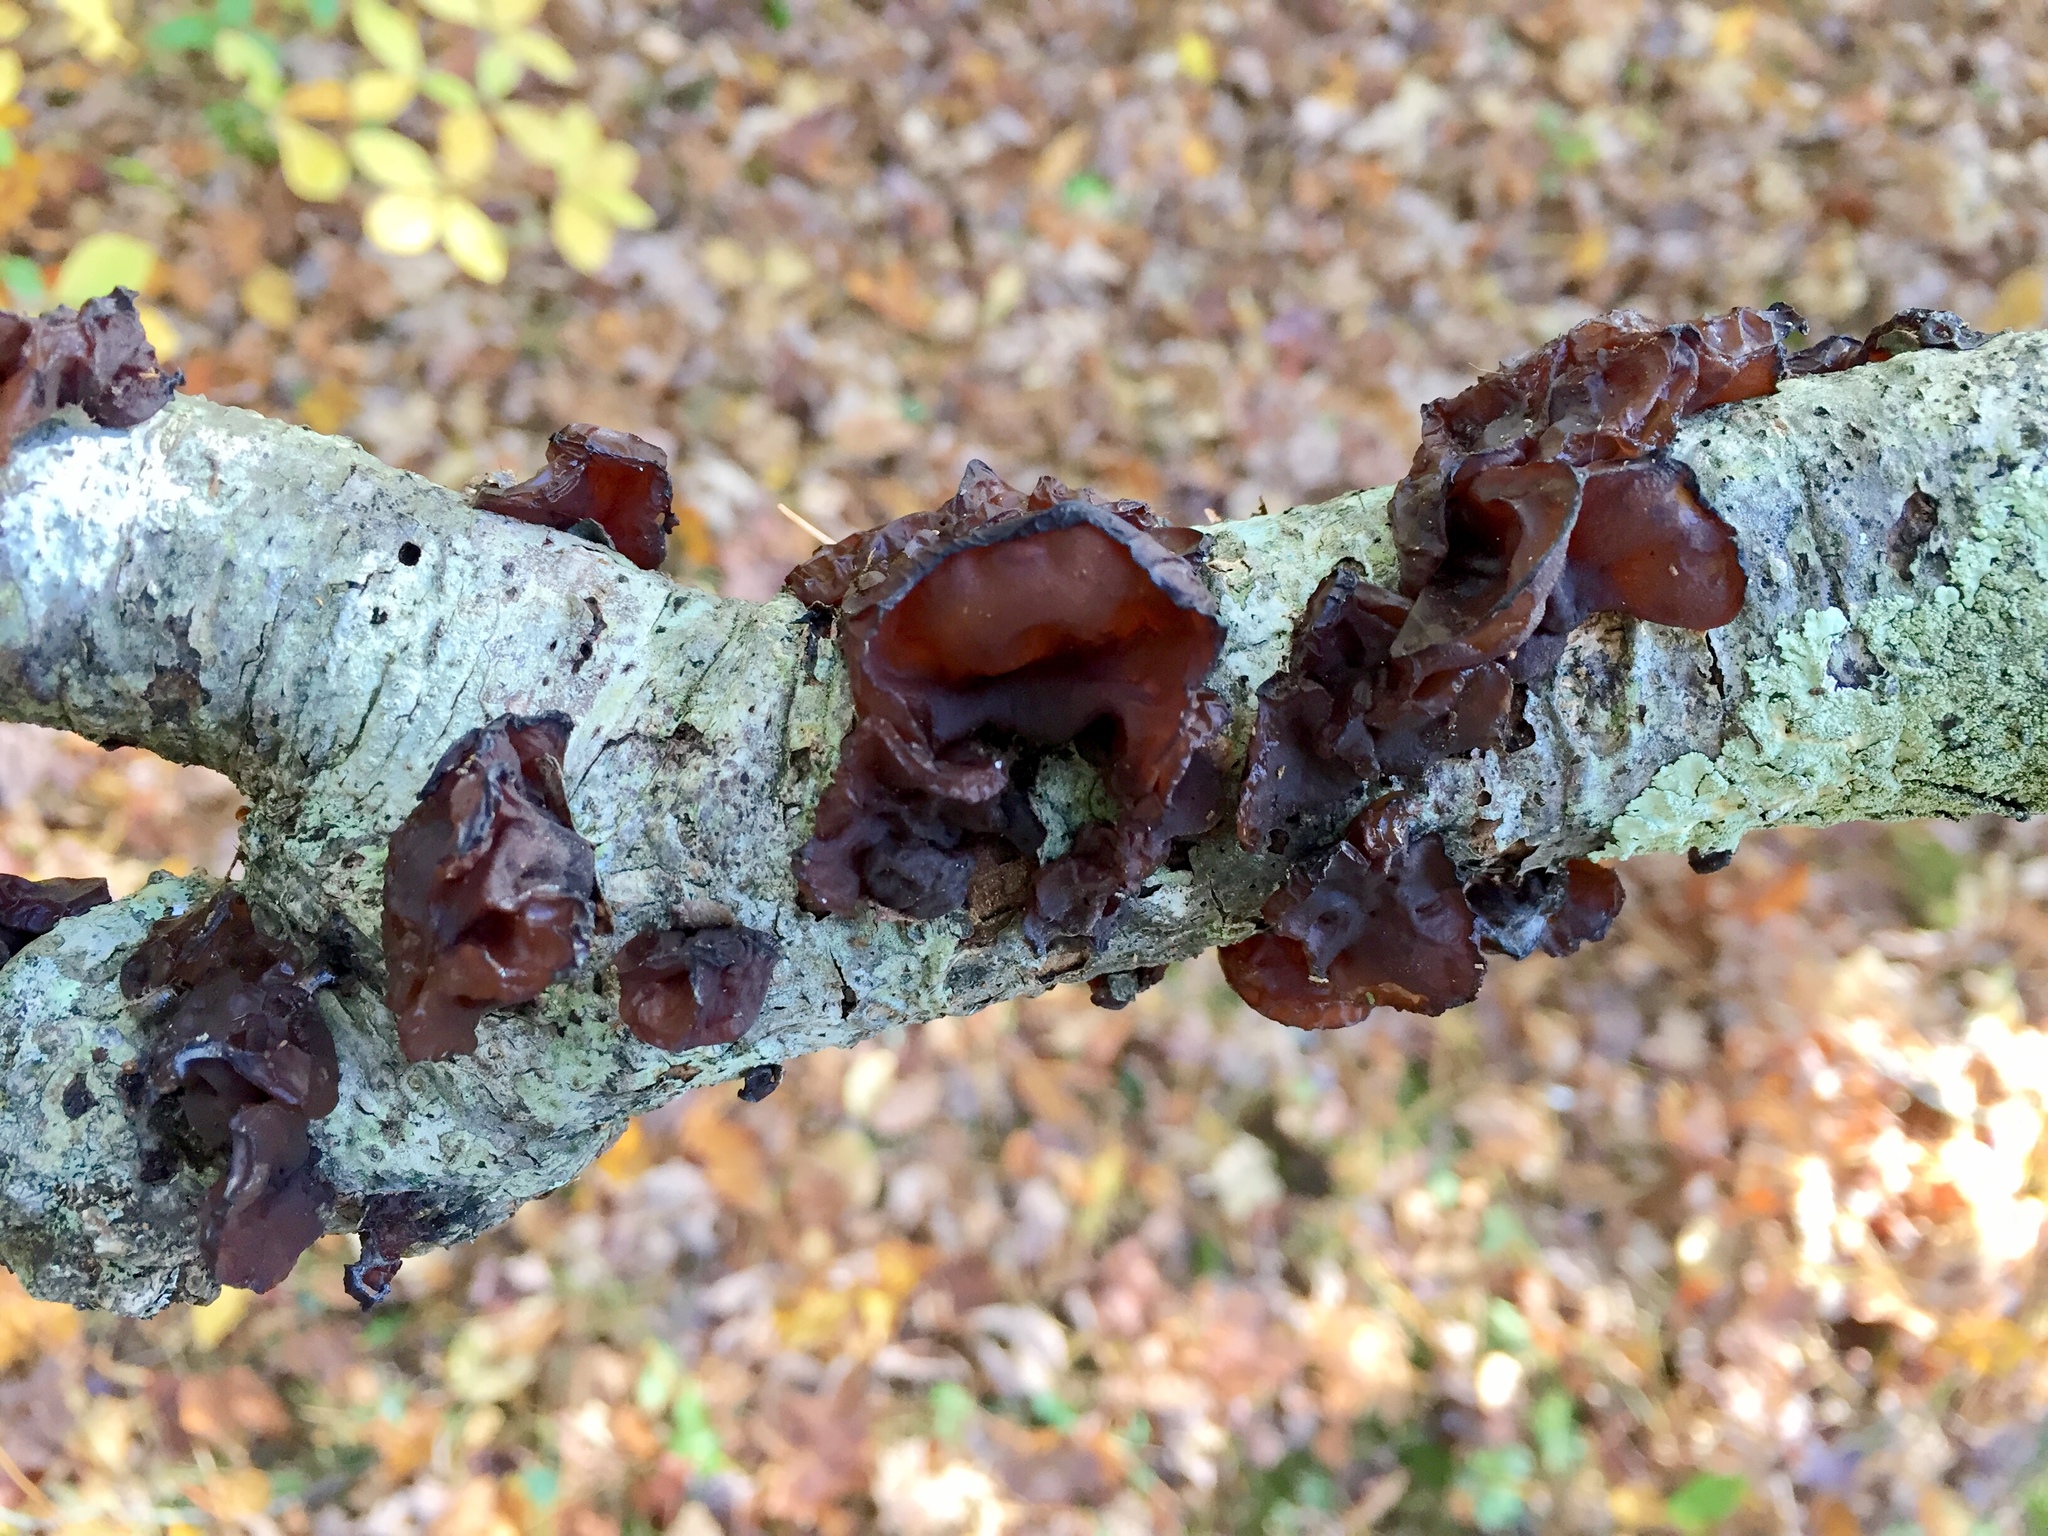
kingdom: Fungi
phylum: Basidiomycota
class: Agaricomycetes
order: Auriculariales
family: Auriculariaceae
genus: Exidia
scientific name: Exidia
